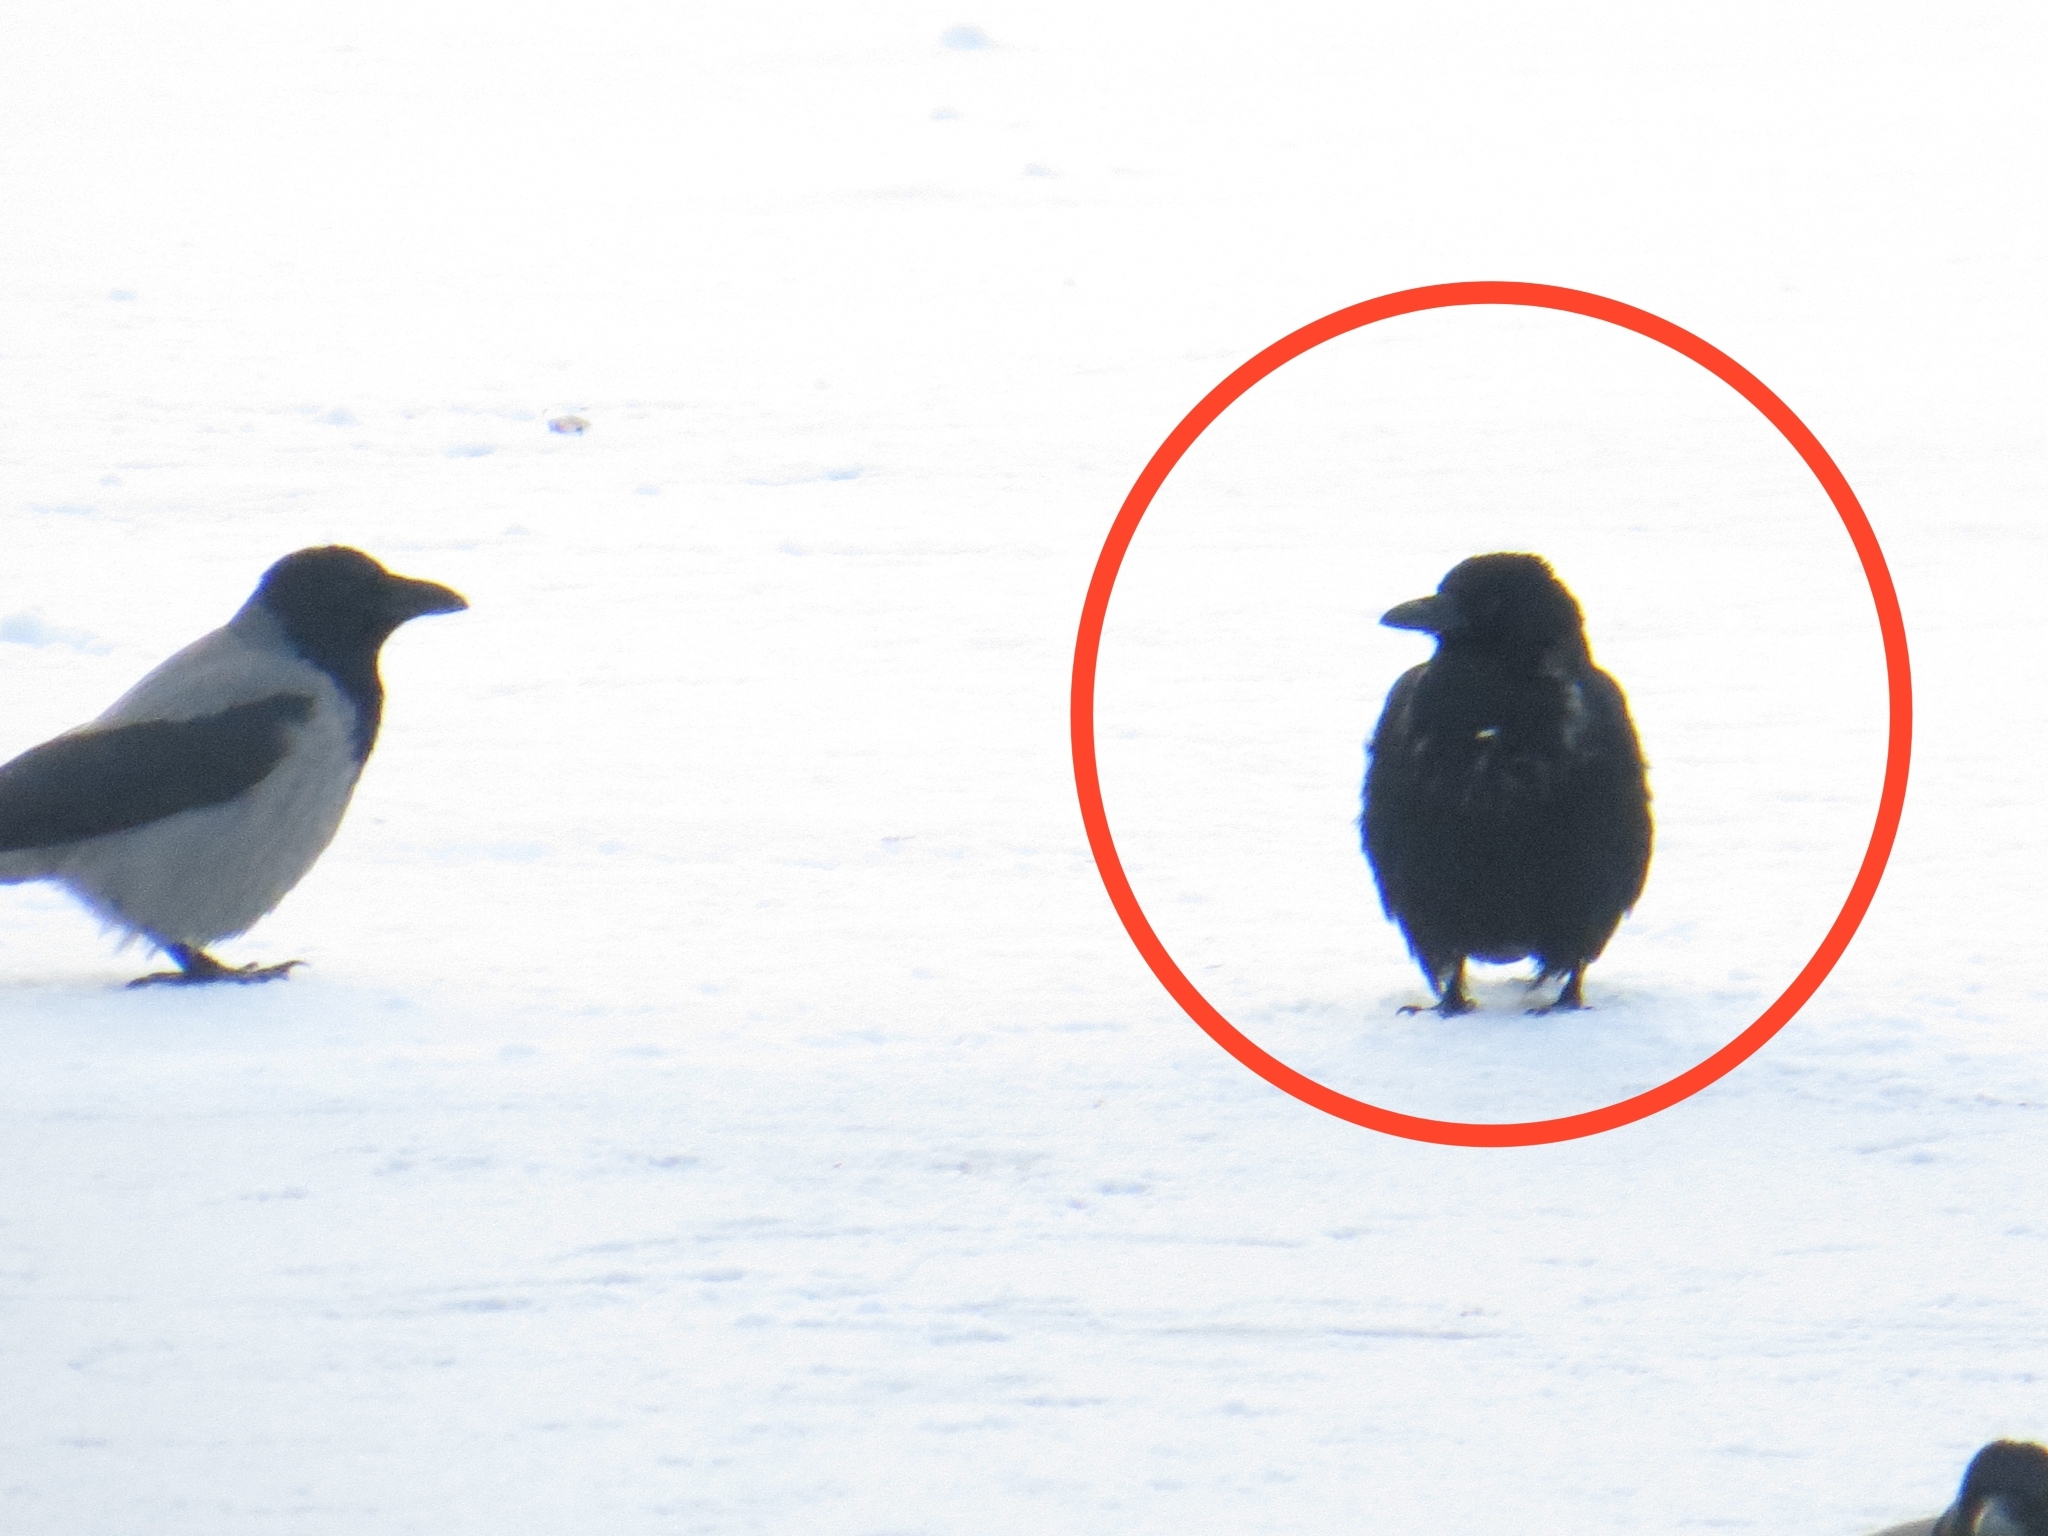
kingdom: Animalia
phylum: Chordata
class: Aves
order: Passeriformes
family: Corvidae
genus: Corvus
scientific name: Corvus
